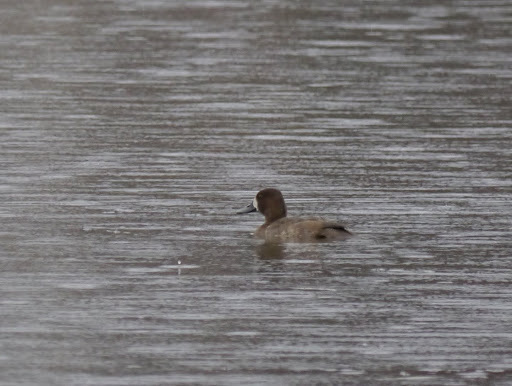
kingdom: Animalia
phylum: Chordata
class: Aves
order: Anseriformes
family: Anatidae
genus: Aythya
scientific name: Aythya affinis
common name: Lesser scaup
